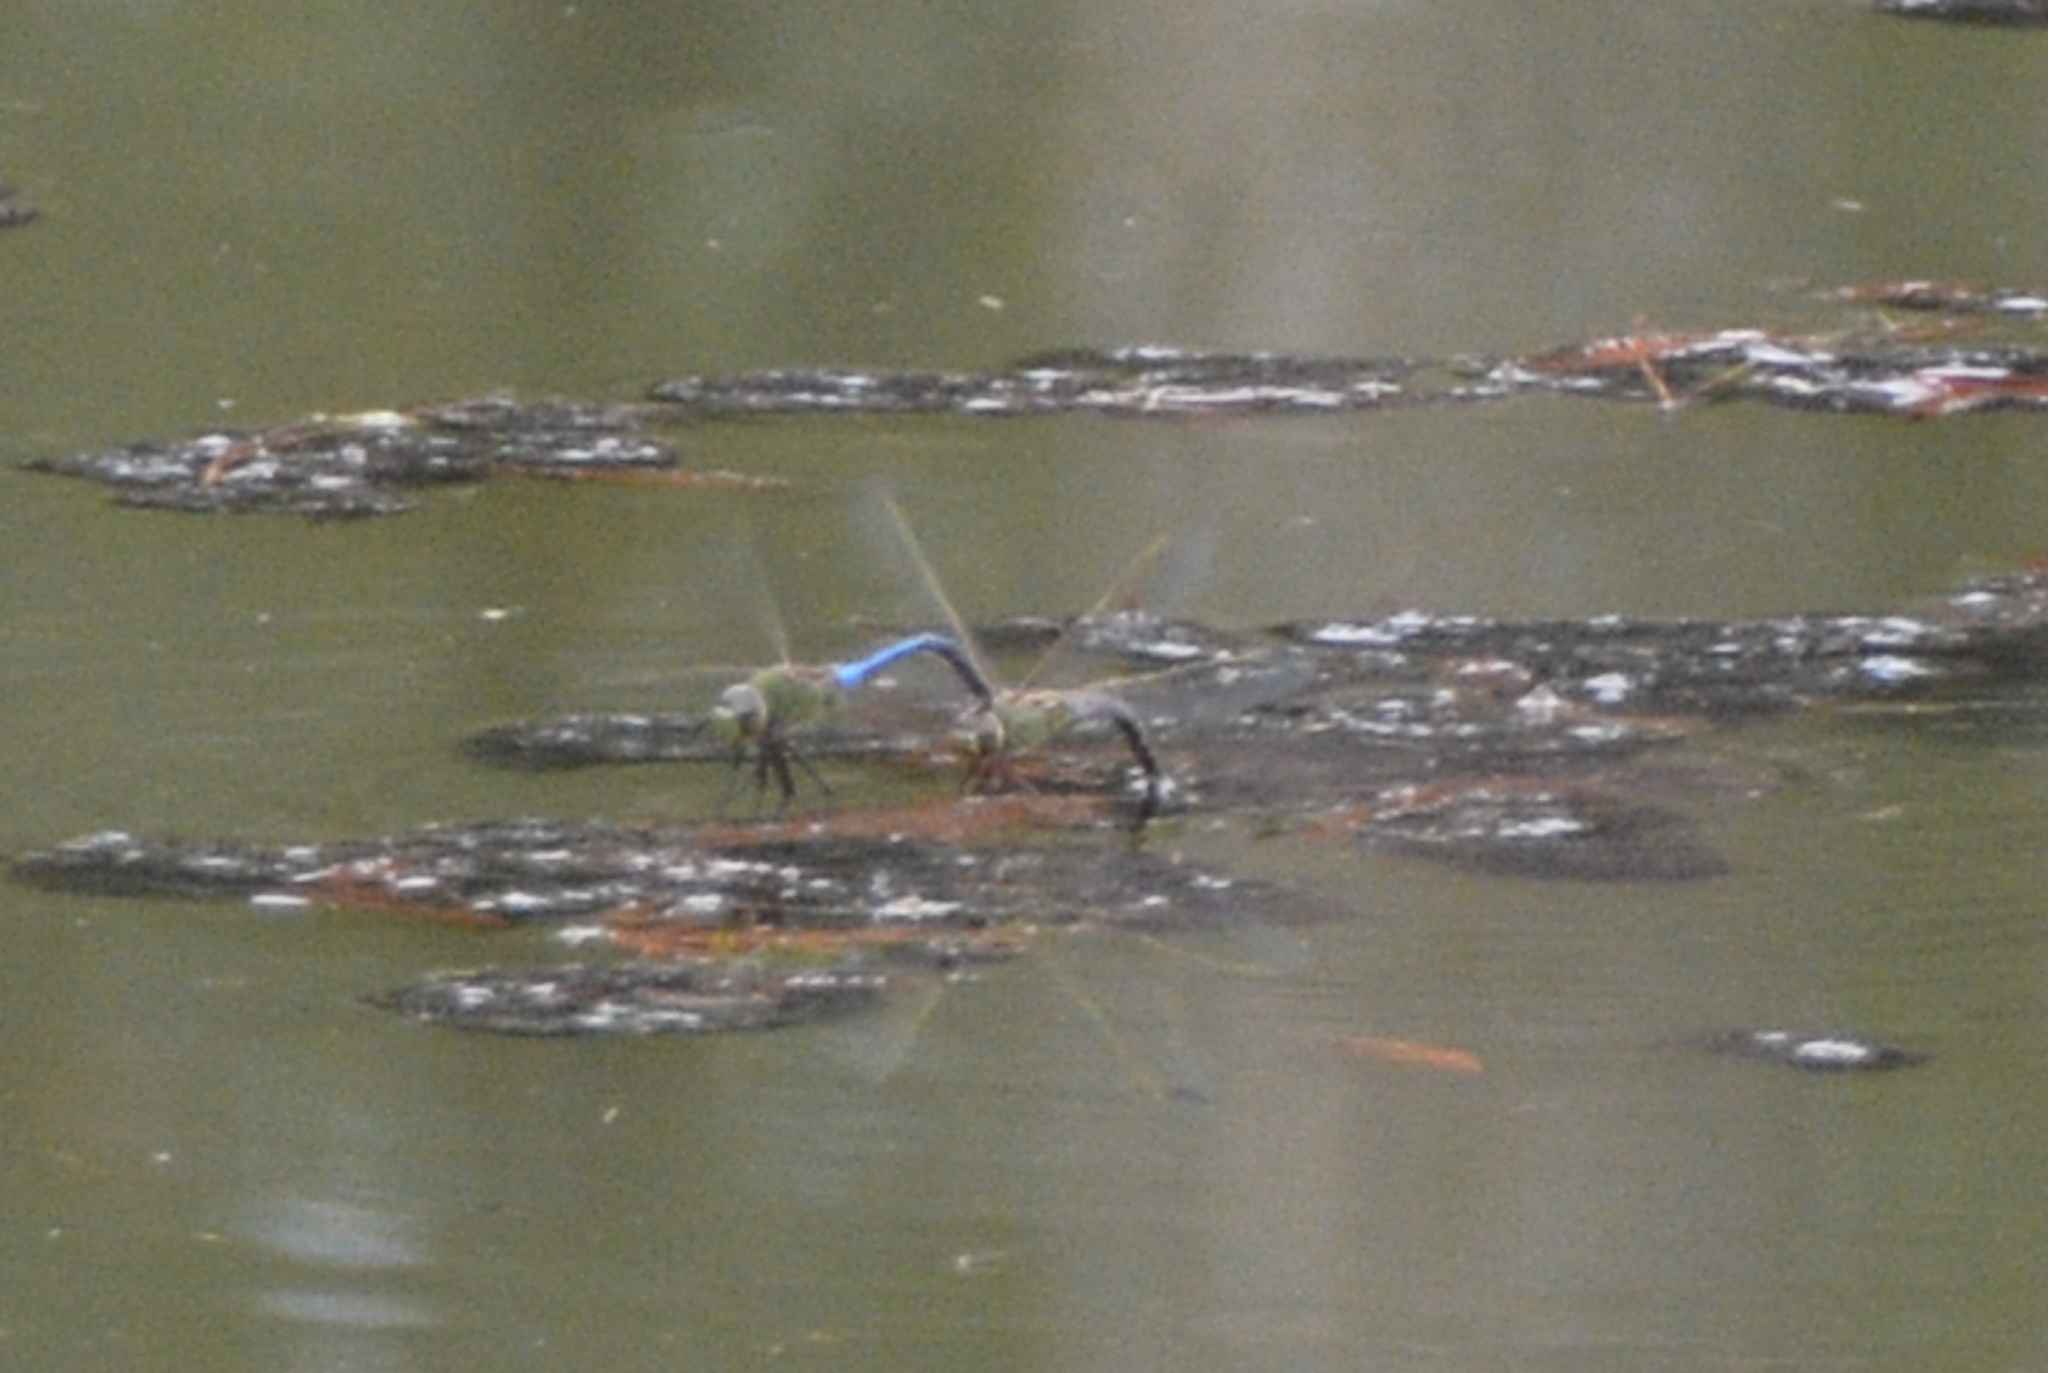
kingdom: Animalia
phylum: Arthropoda
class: Insecta
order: Odonata
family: Aeshnidae
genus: Anax
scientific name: Anax junius
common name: Common green darner
